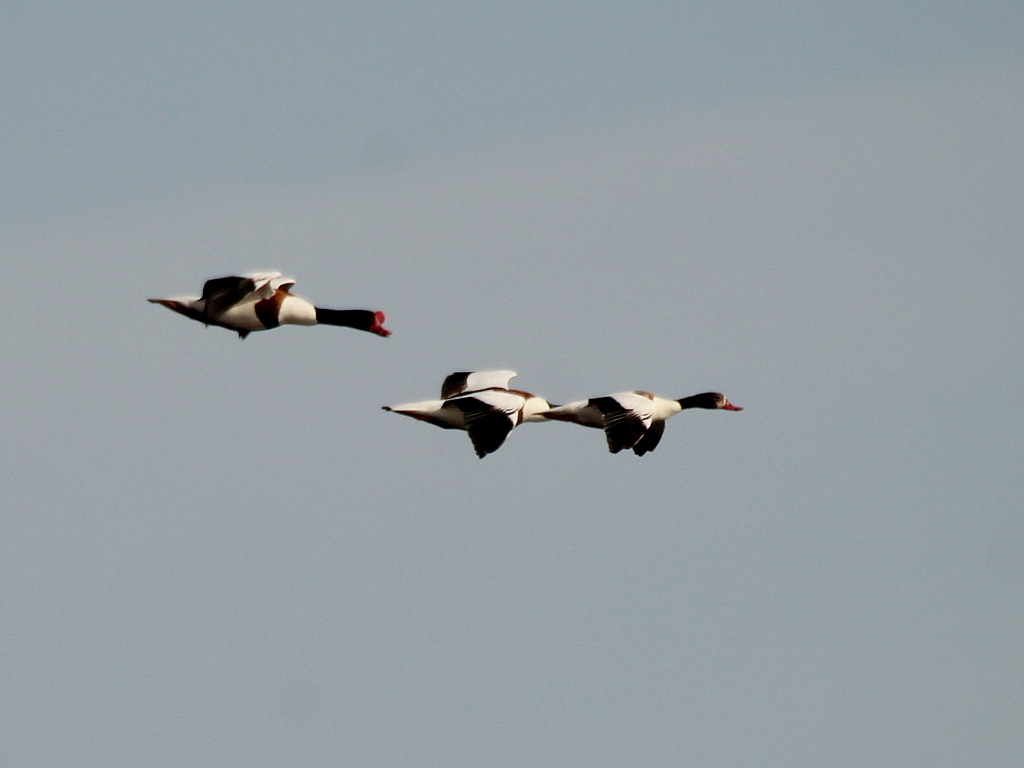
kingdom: Animalia
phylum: Chordata
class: Aves
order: Anseriformes
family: Anatidae
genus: Tadorna
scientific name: Tadorna tadorna
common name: Common shelduck
